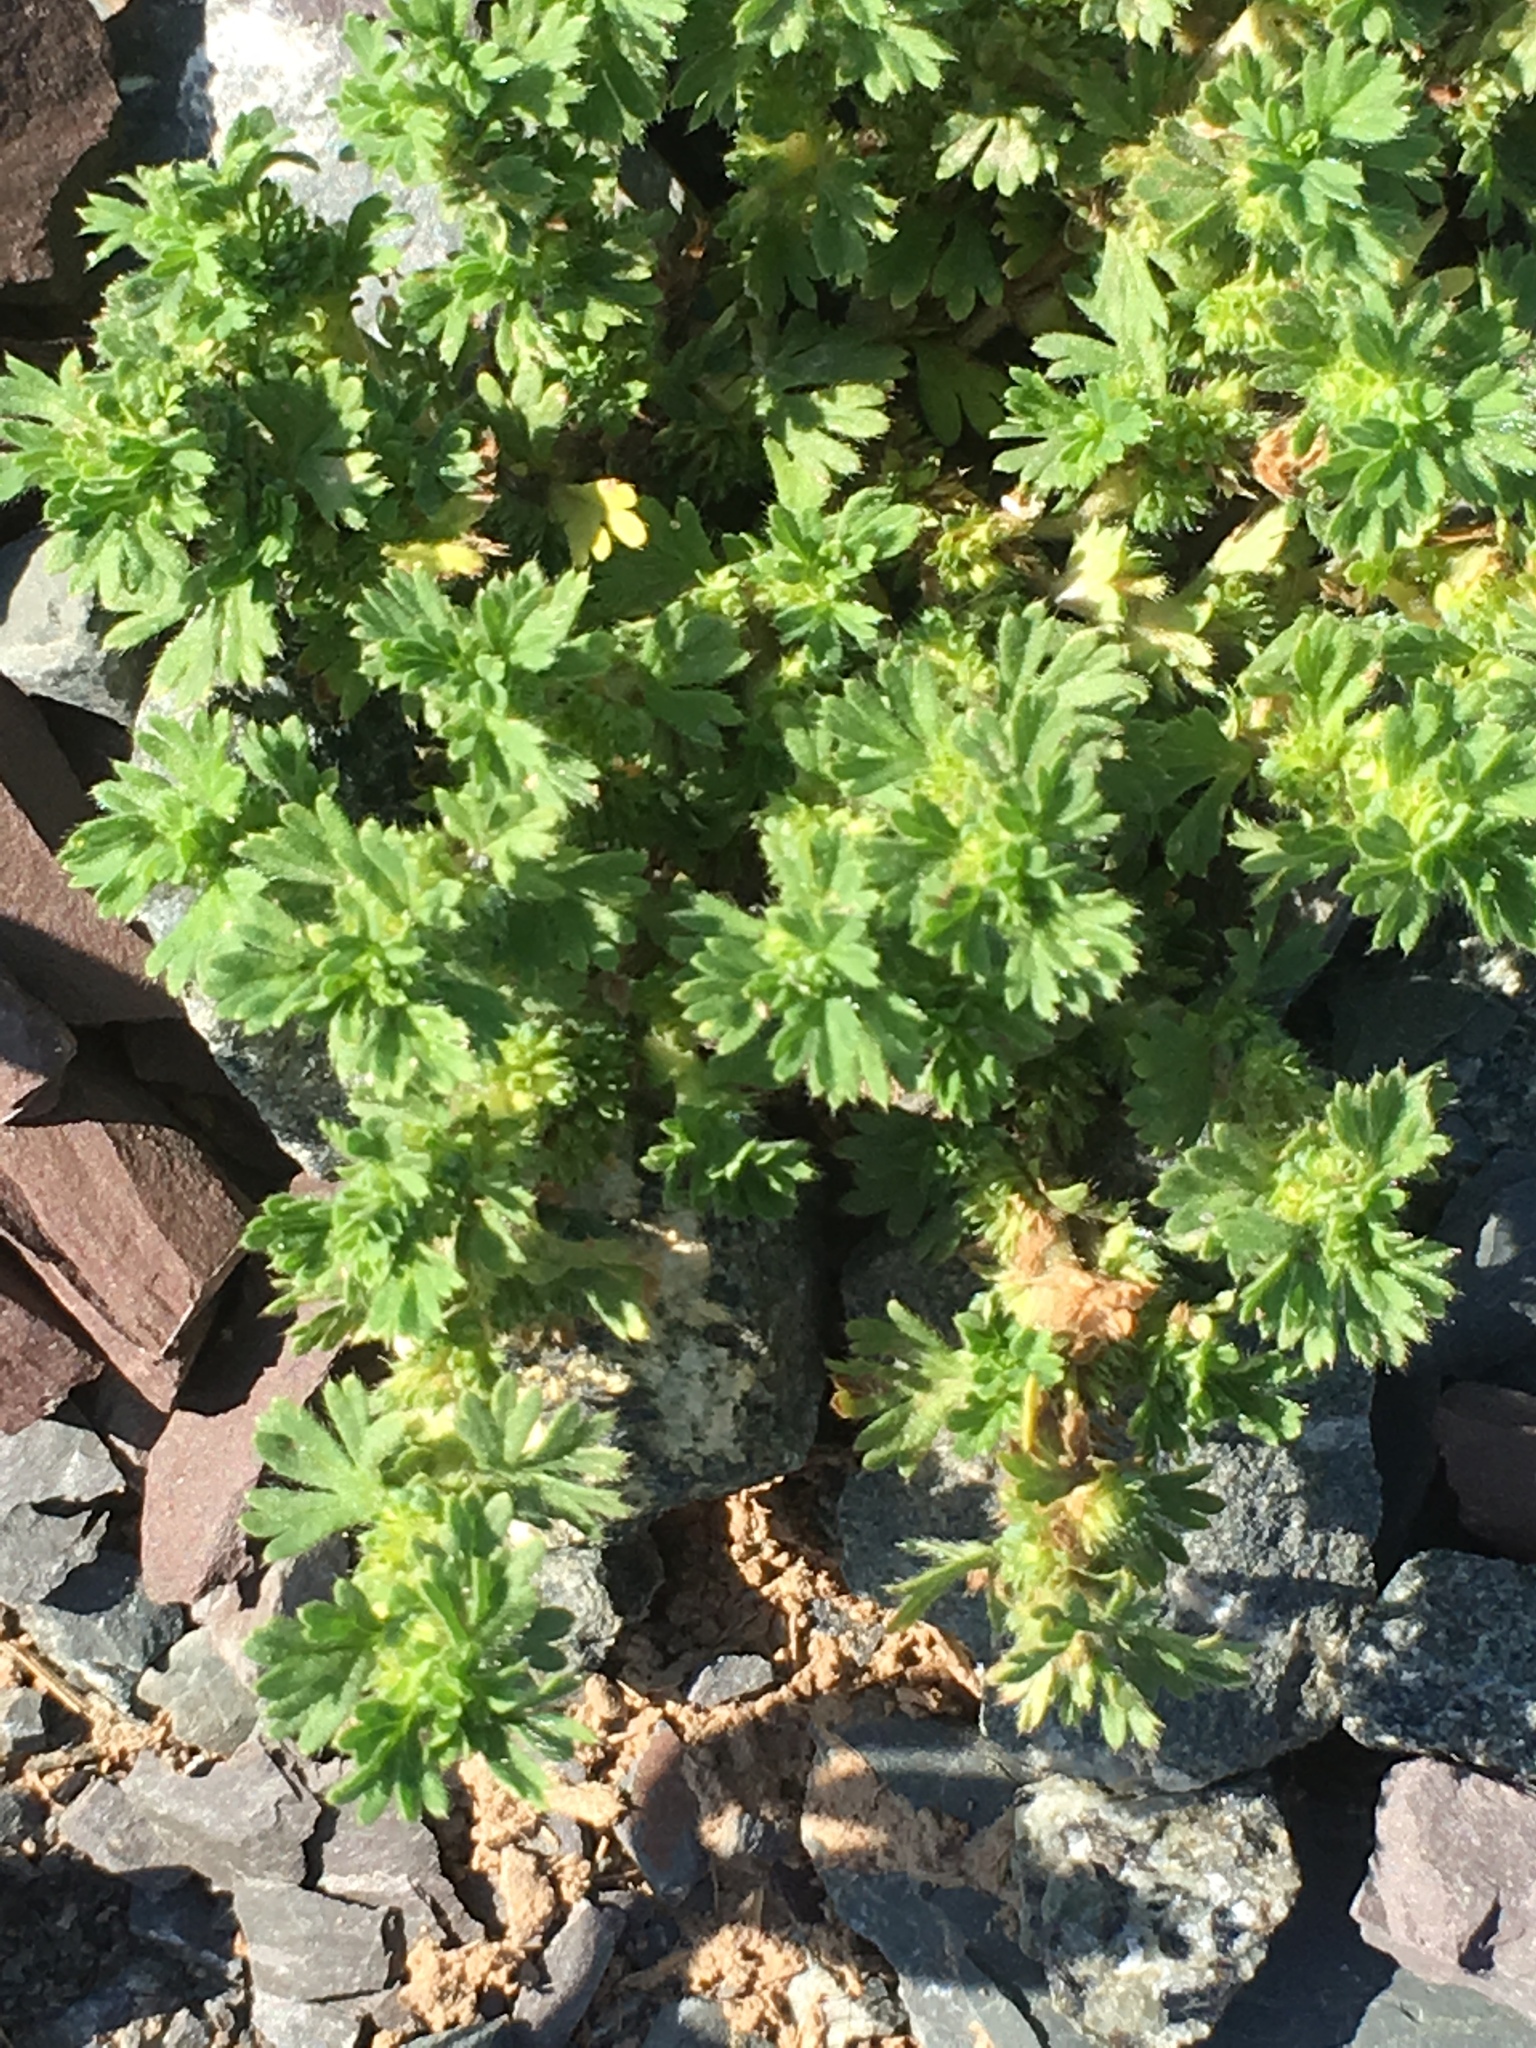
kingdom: Plantae
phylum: Tracheophyta
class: Magnoliopsida
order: Rosales
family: Rosaceae
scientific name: Rosaceae
